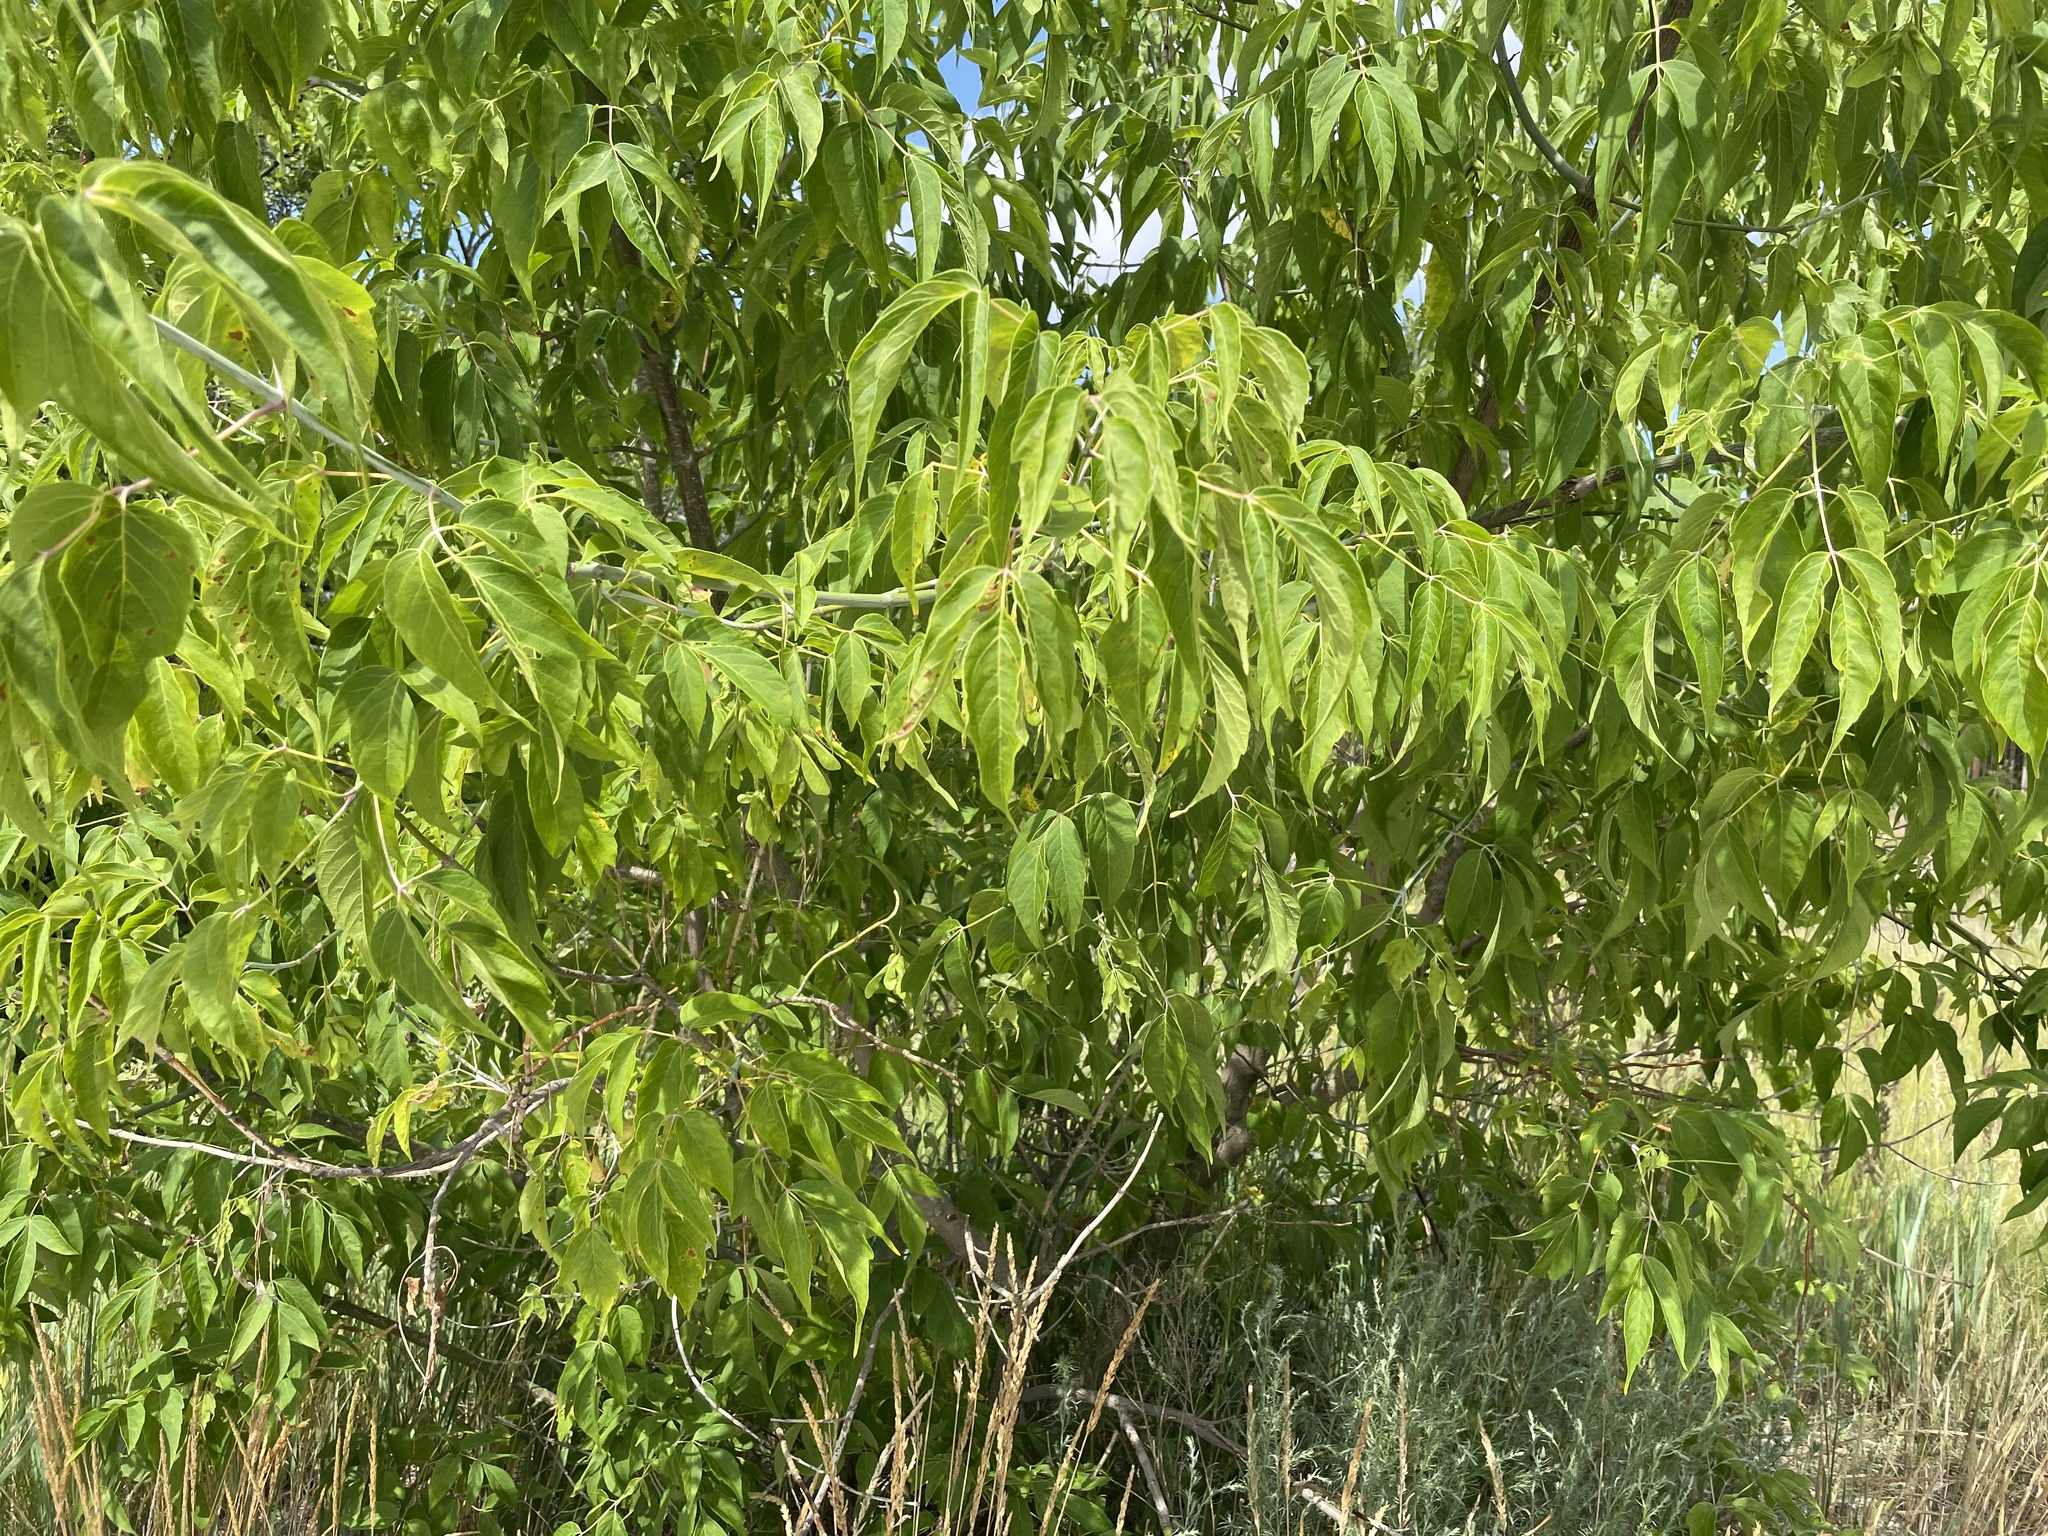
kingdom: Plantae
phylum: Tracheophyta
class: Magnoliopsida
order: Sapindales
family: Sapindaceae
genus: Acer
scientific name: Acer negundo
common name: Ashleaf maple
